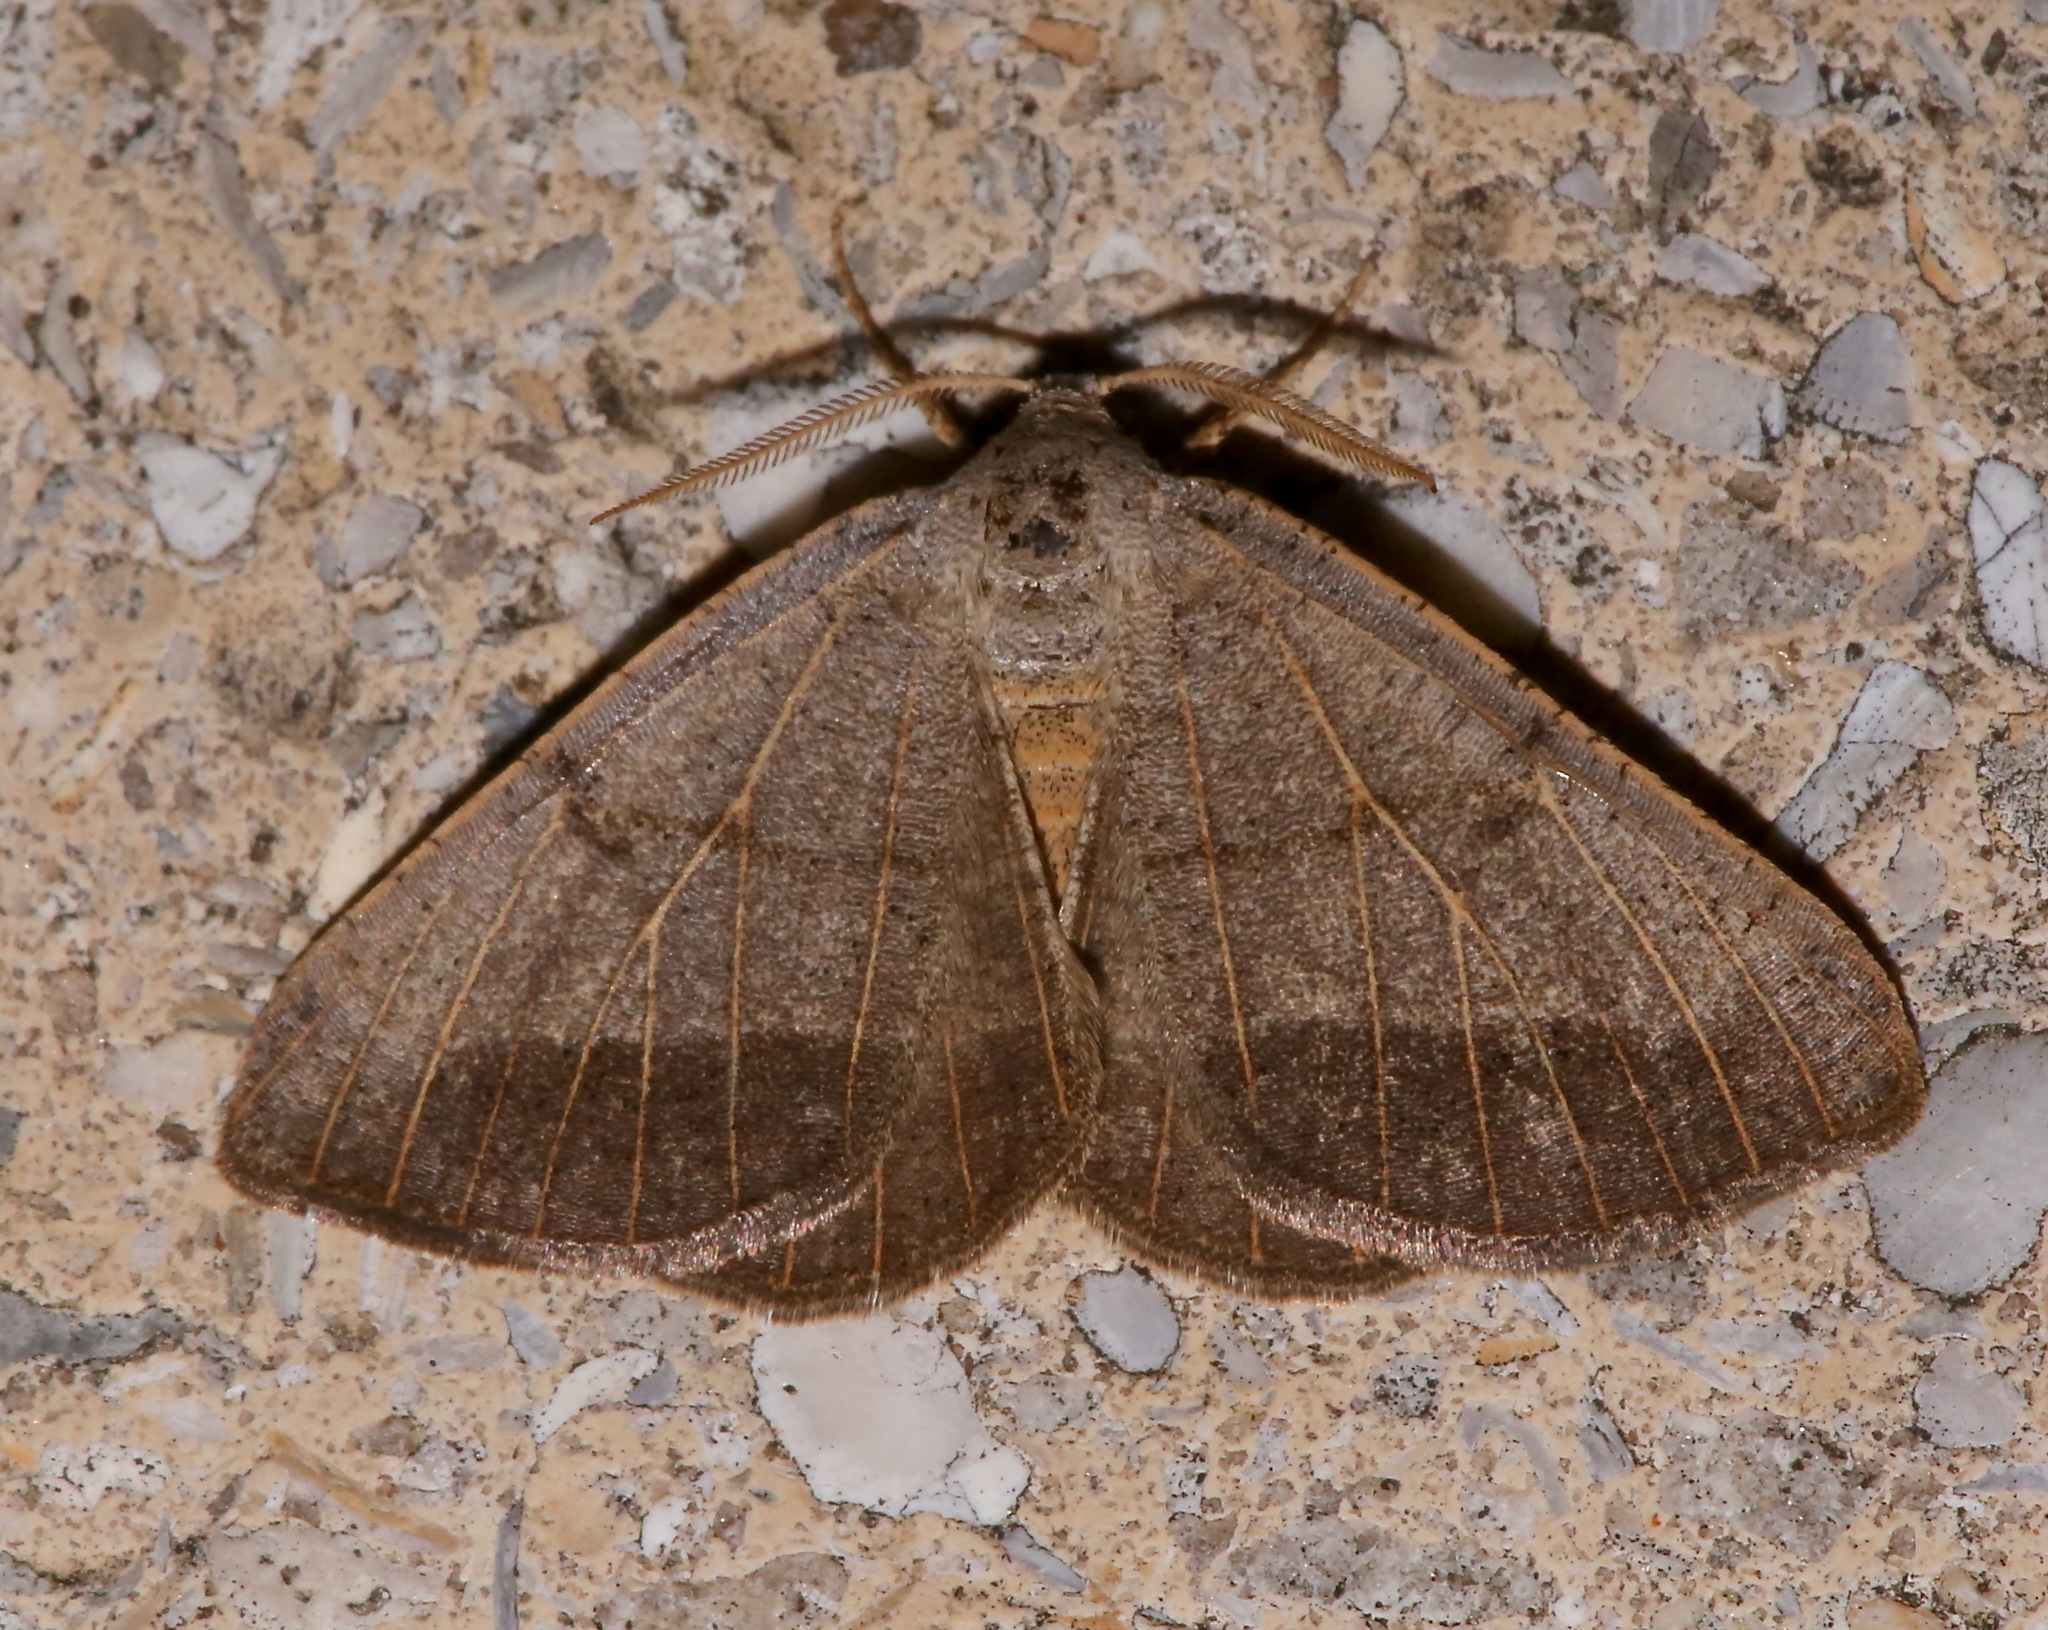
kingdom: Animalia
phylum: Arthropoda
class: Insecta
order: Lepidoptera
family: Geometridae
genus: Isturgia
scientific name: Isturgia dislocaria
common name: Pale-viened enconista
